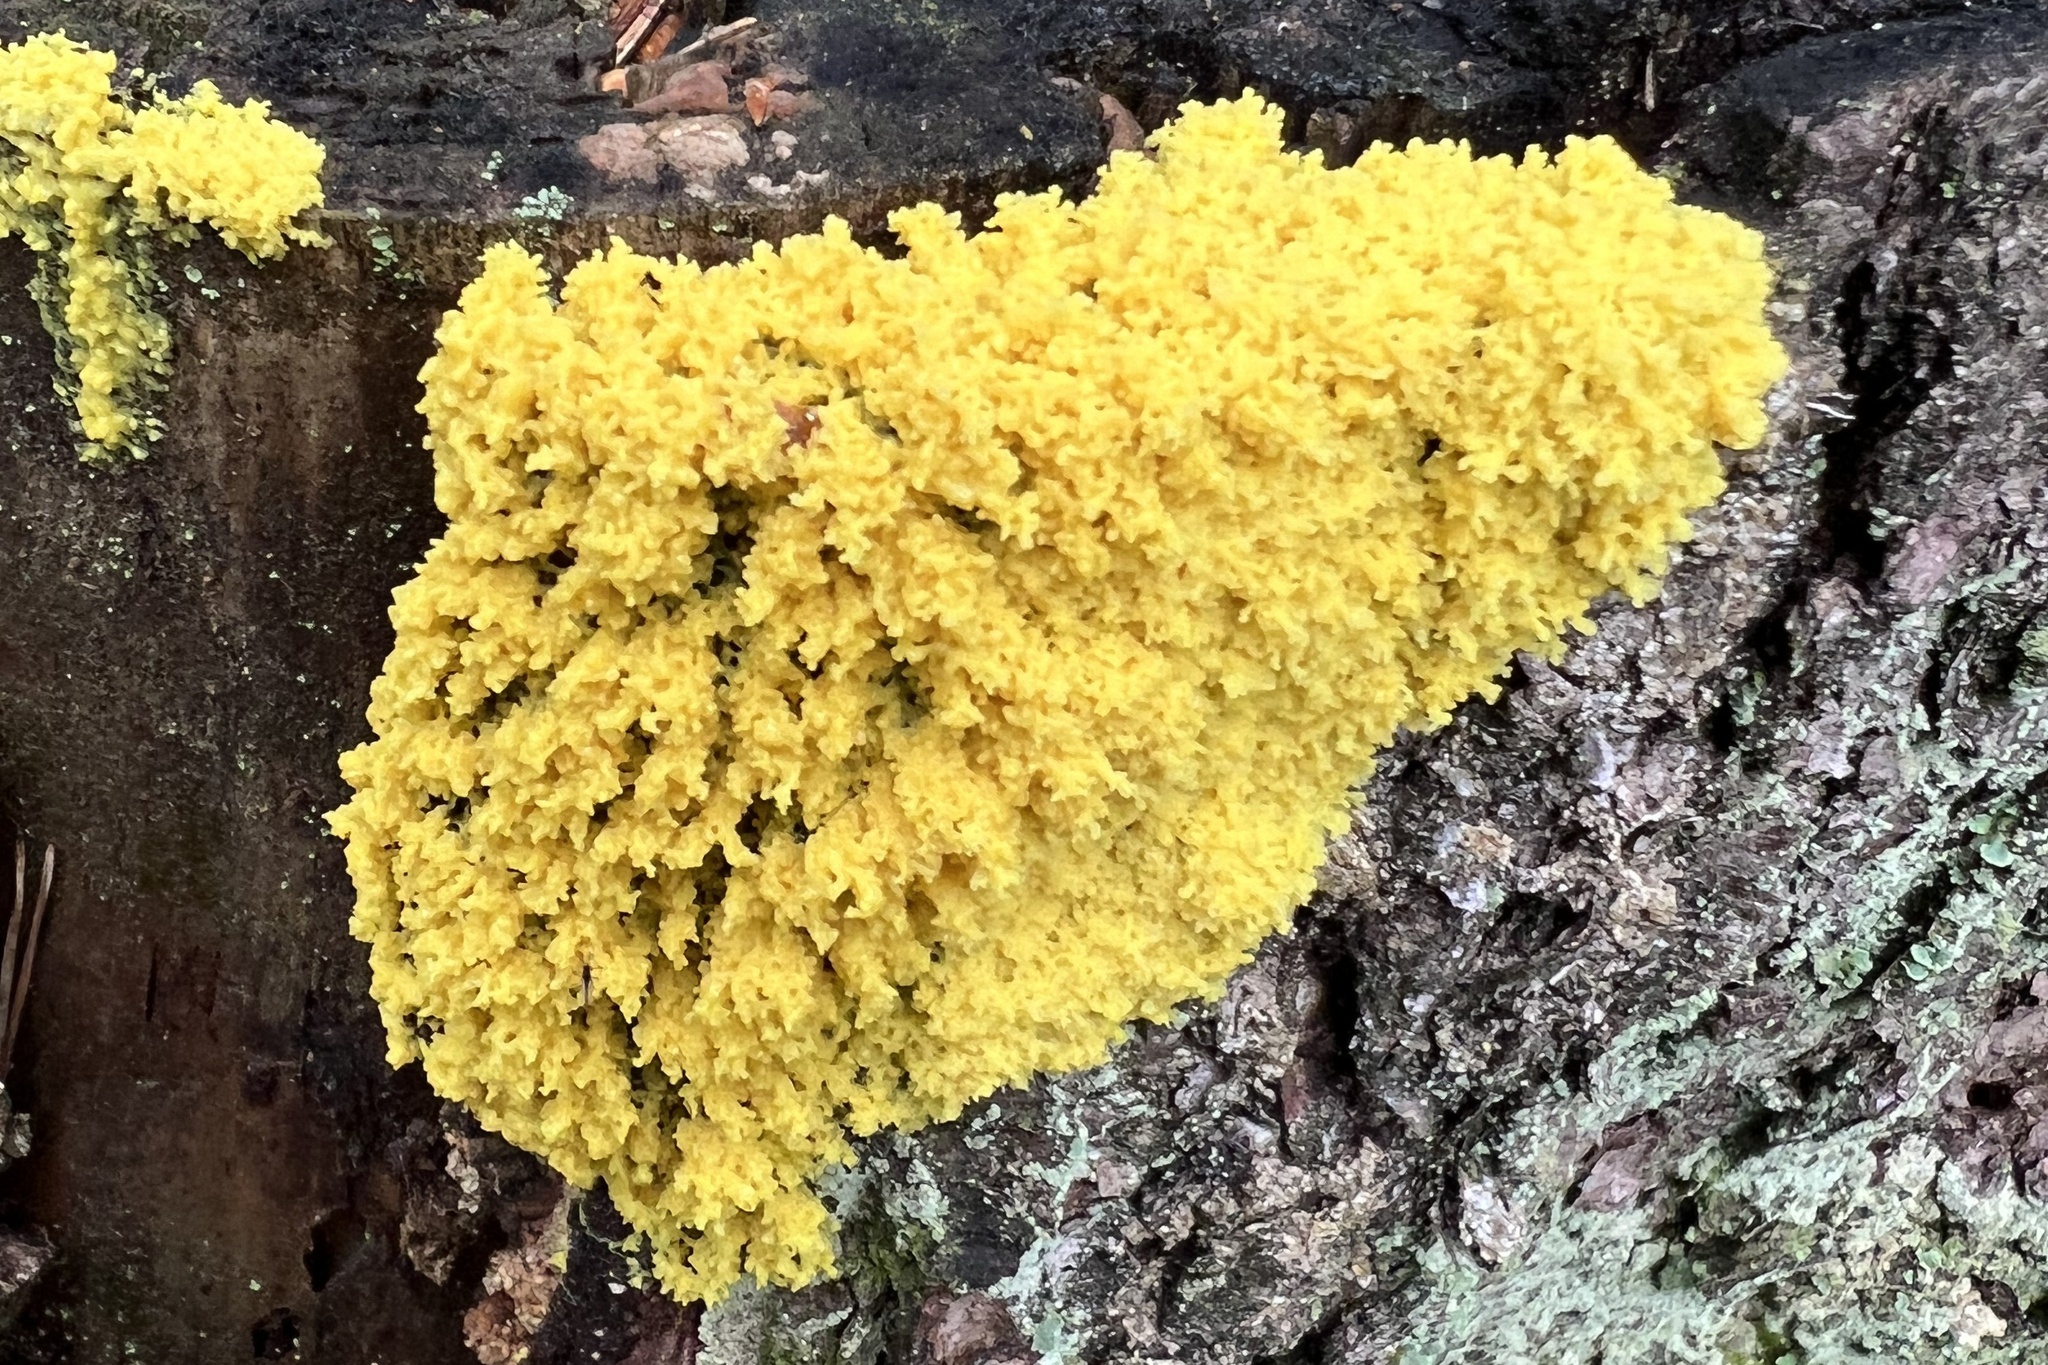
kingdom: Protozoa
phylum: Mycetozoa
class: Myxomycetes
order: Physarales
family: Physaraceae
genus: Fuligo
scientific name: Fuligo septica
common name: Dog vomit slime mold
